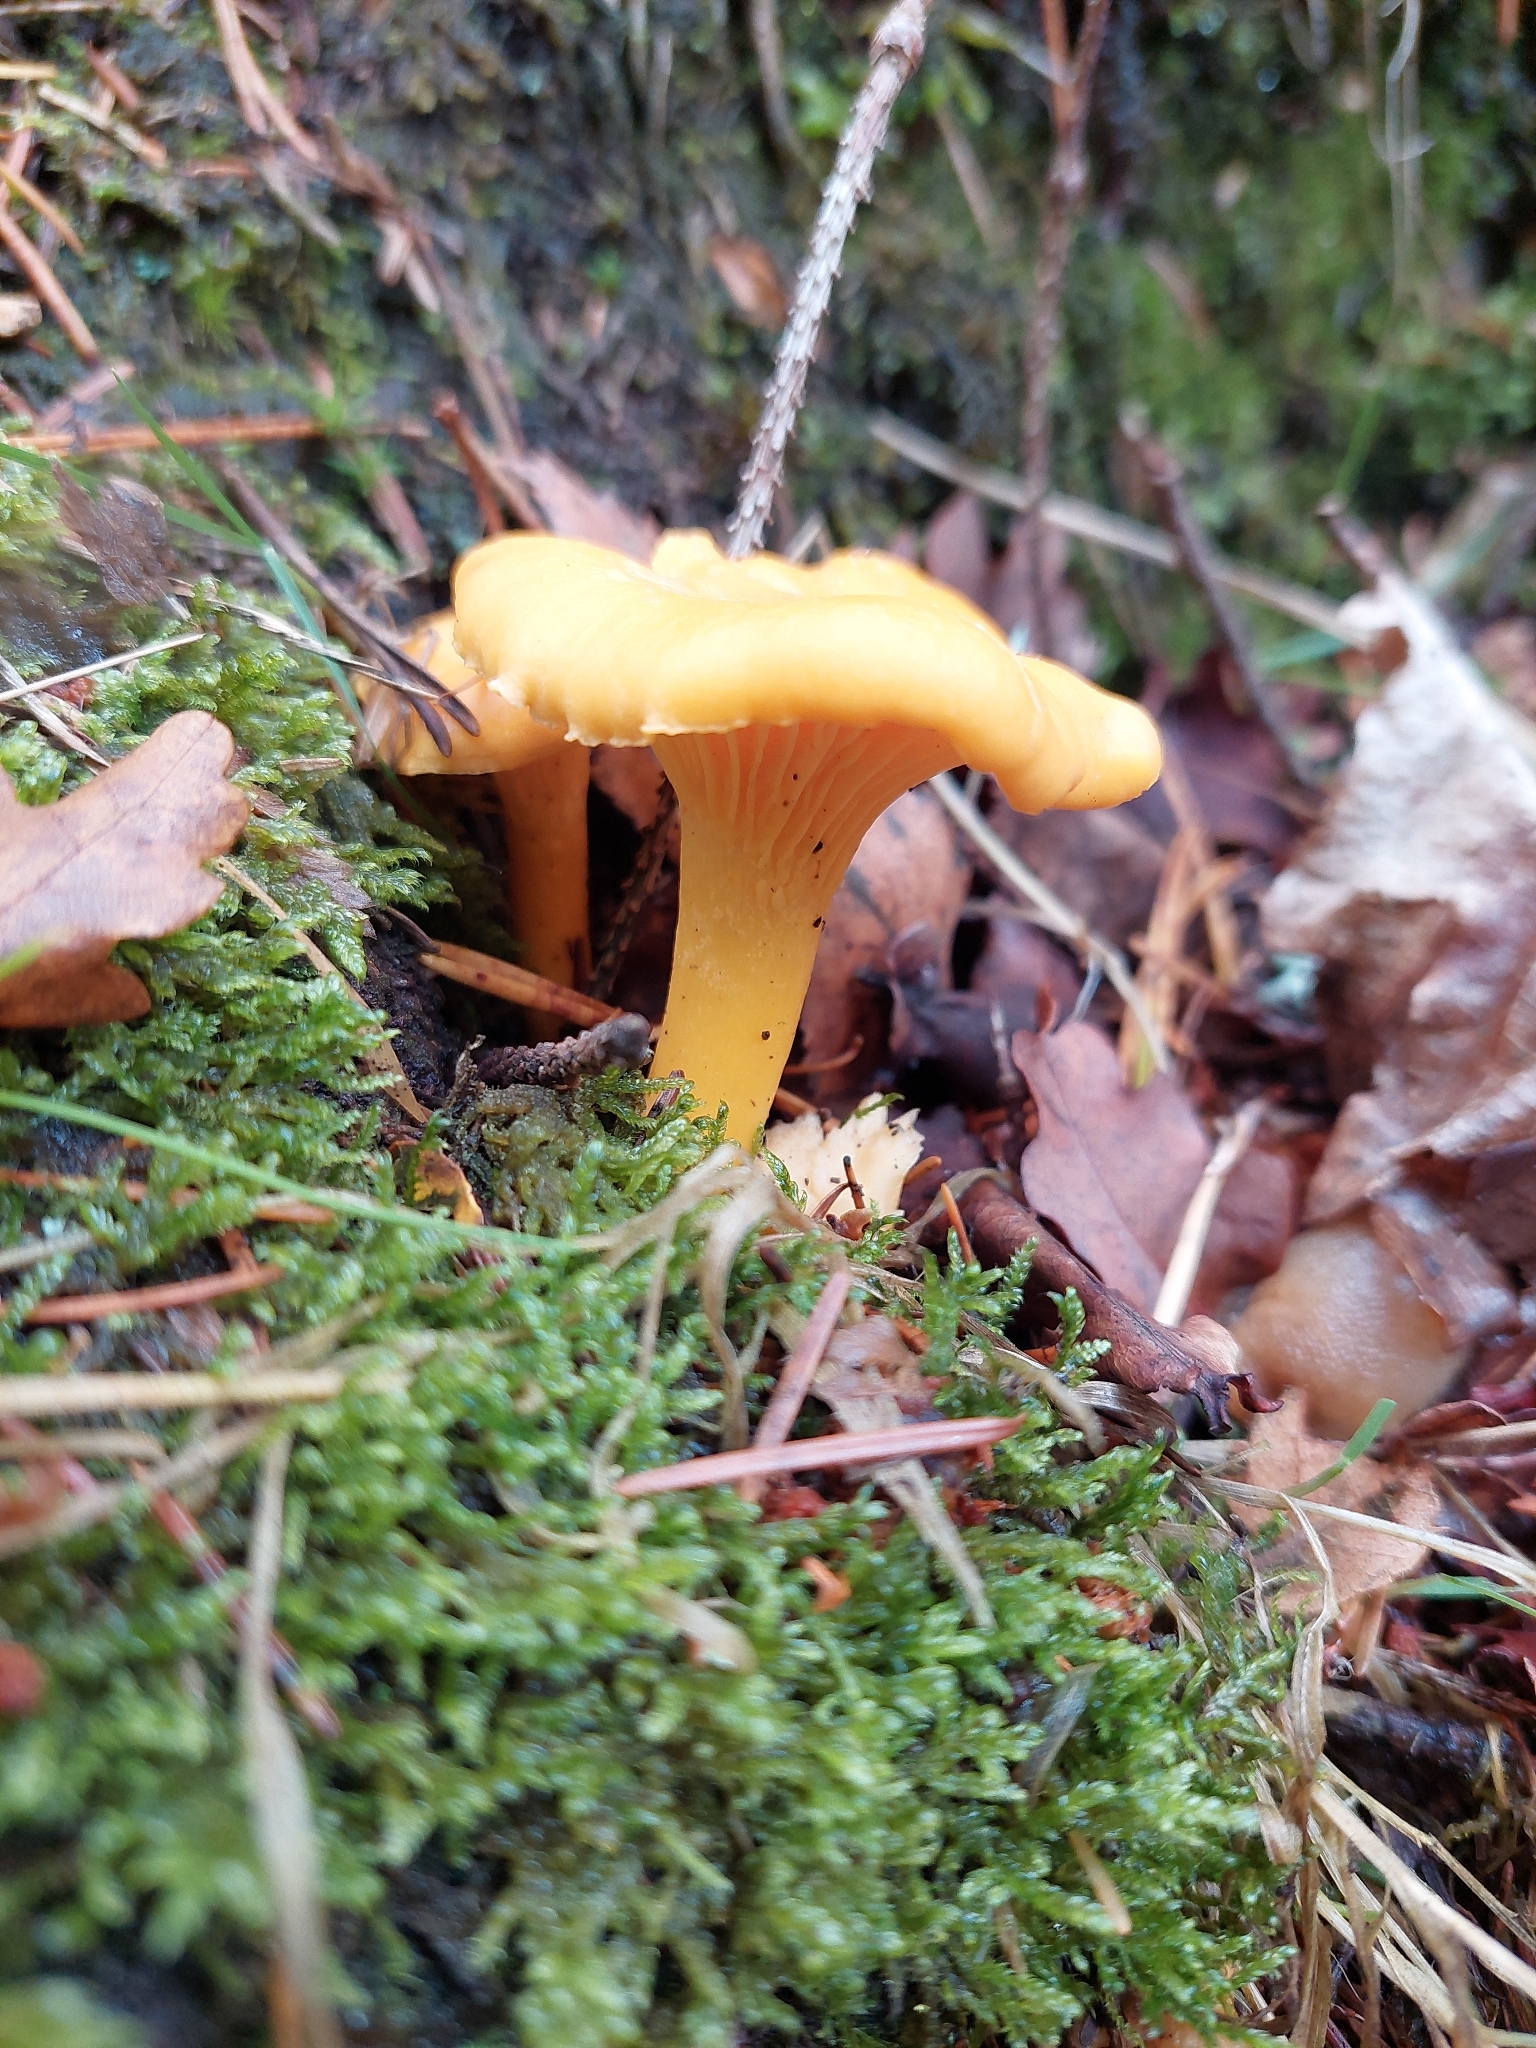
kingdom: Fungi
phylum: Basidiomycota
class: Agaricomycetes
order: Cantharellales
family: Hydnaceae
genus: Cantharellus
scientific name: Cantharellus cibarius
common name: Chanterelle
